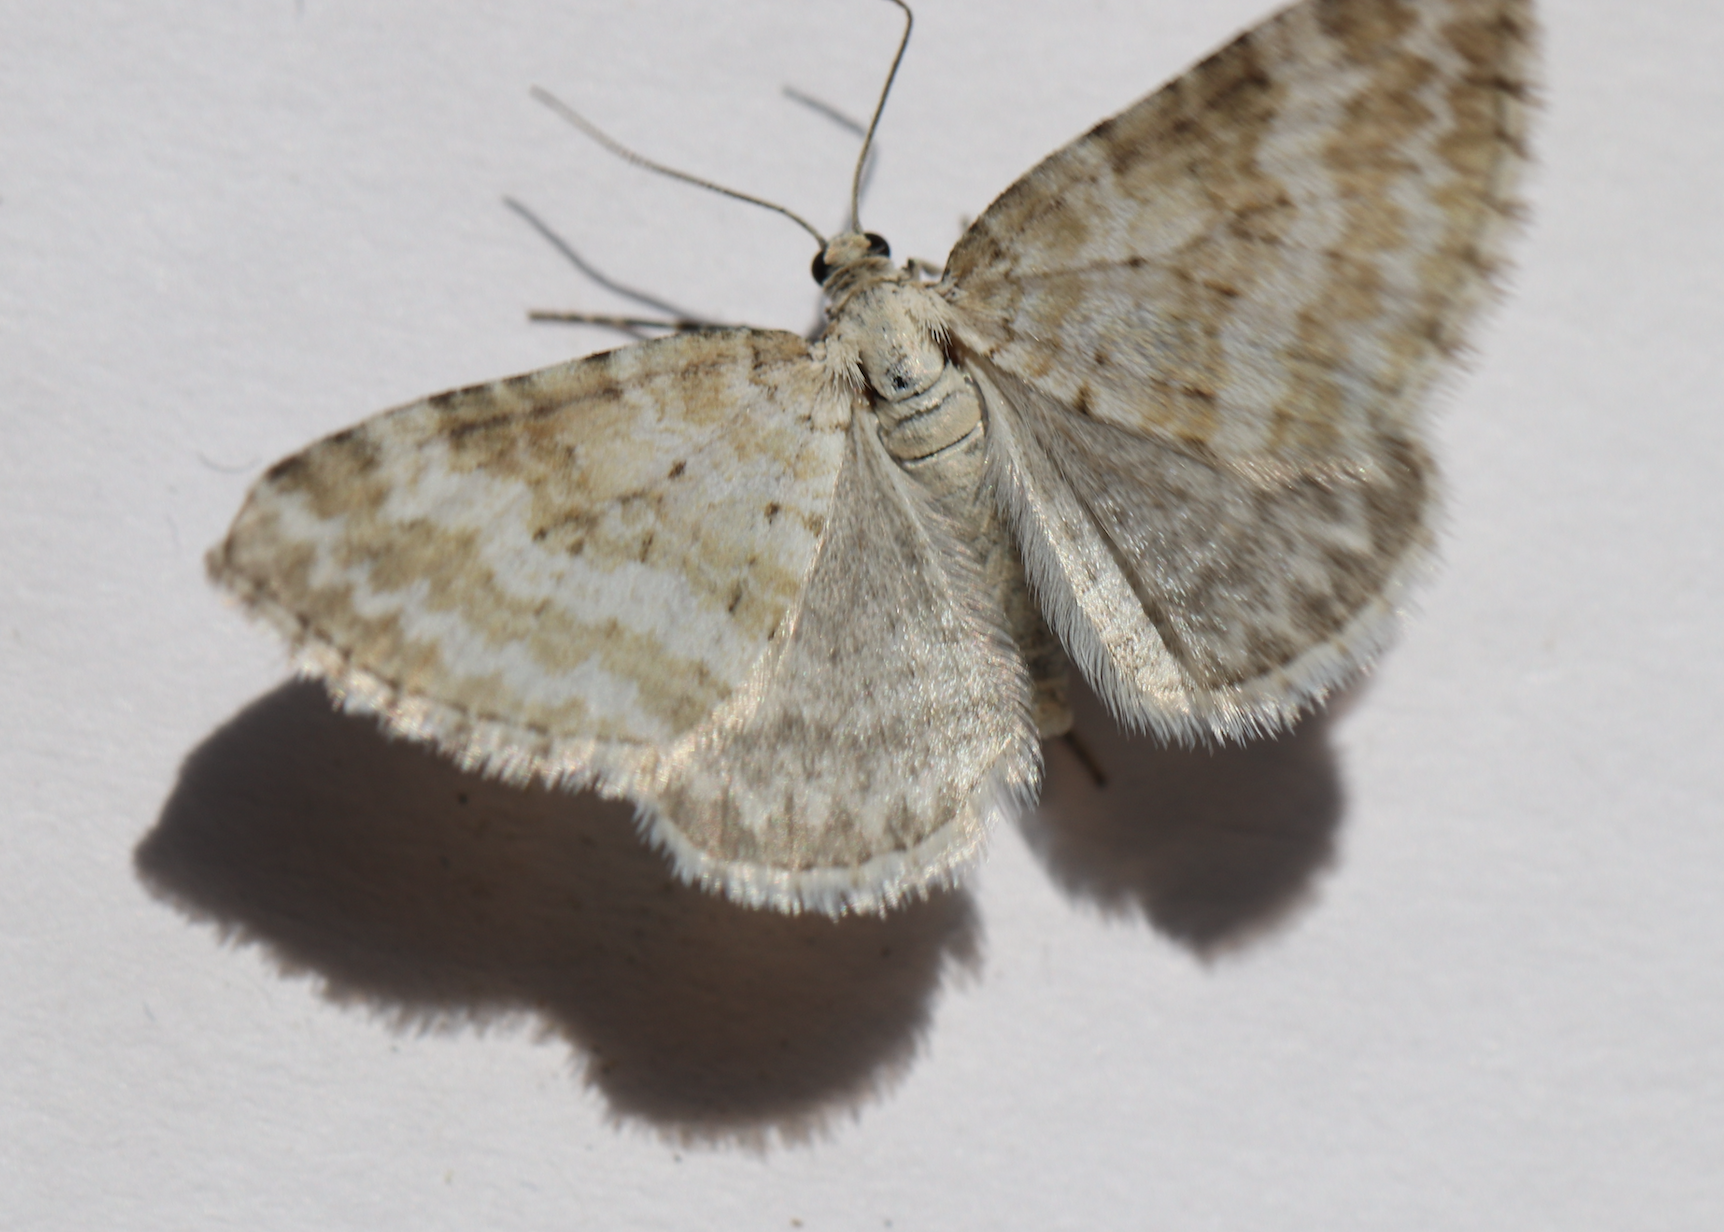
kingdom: Animalia
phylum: Arthropoda
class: Insecta
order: Lepidoptera
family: Geometridae
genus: Perizoma
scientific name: Perizoma albulata
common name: Grass rivulet
